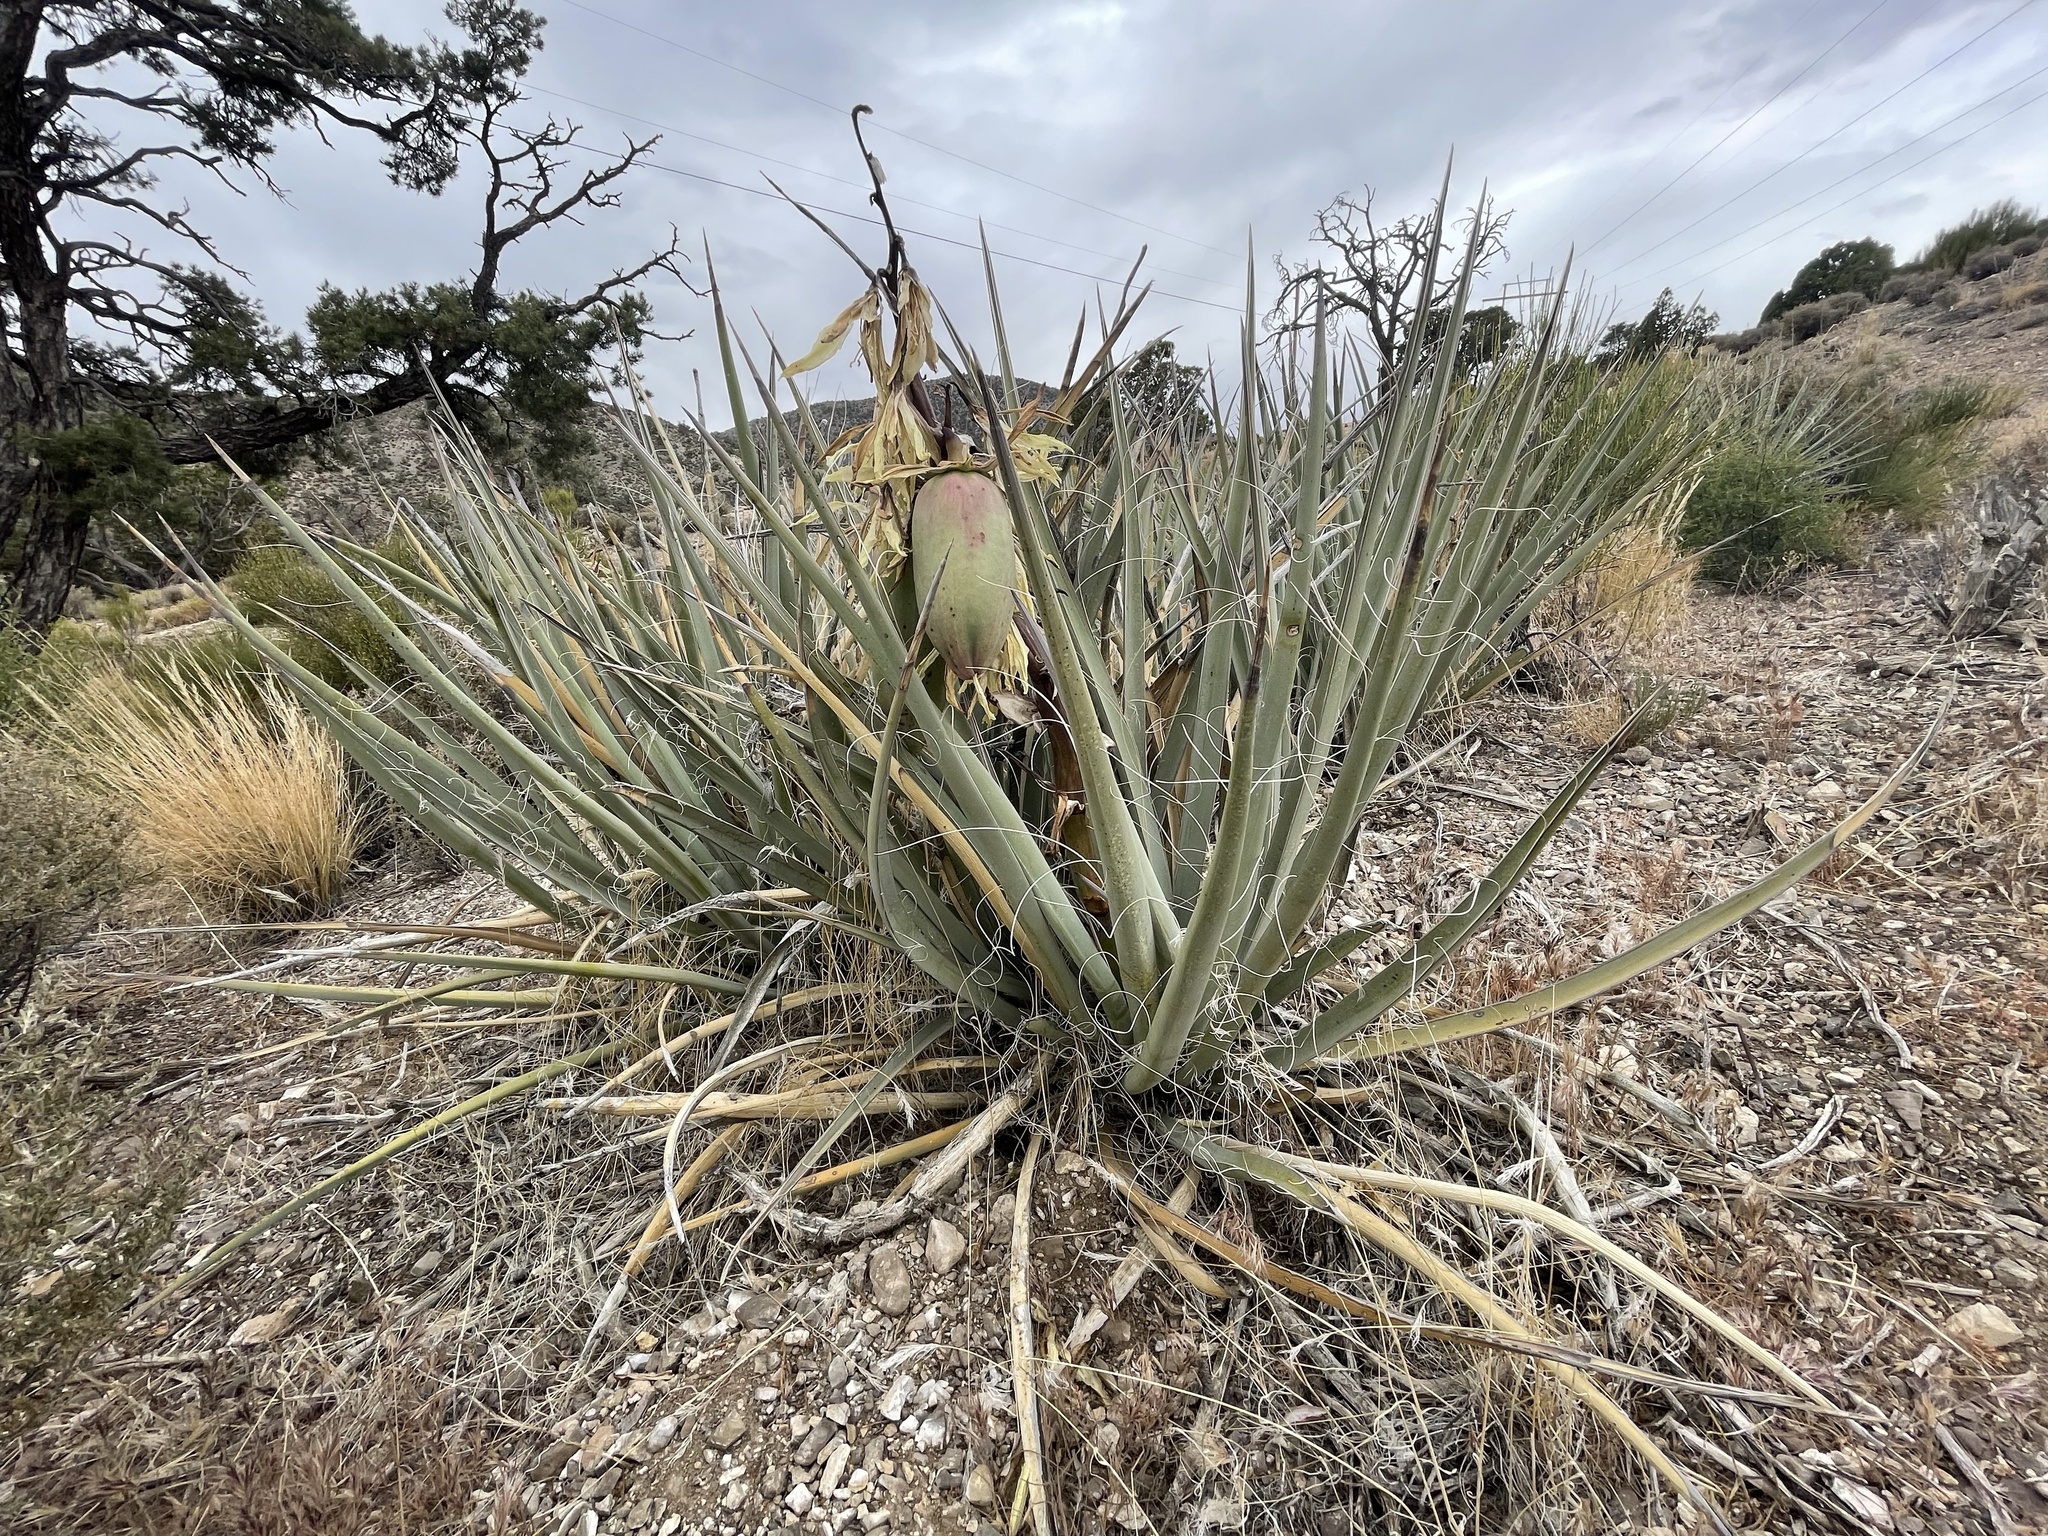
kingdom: Plantae
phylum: Tracheophyta
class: Liliopsida
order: Asparagales
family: Asparagaceae
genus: Yucca
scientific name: Yucca baccata
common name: Banana yucca
